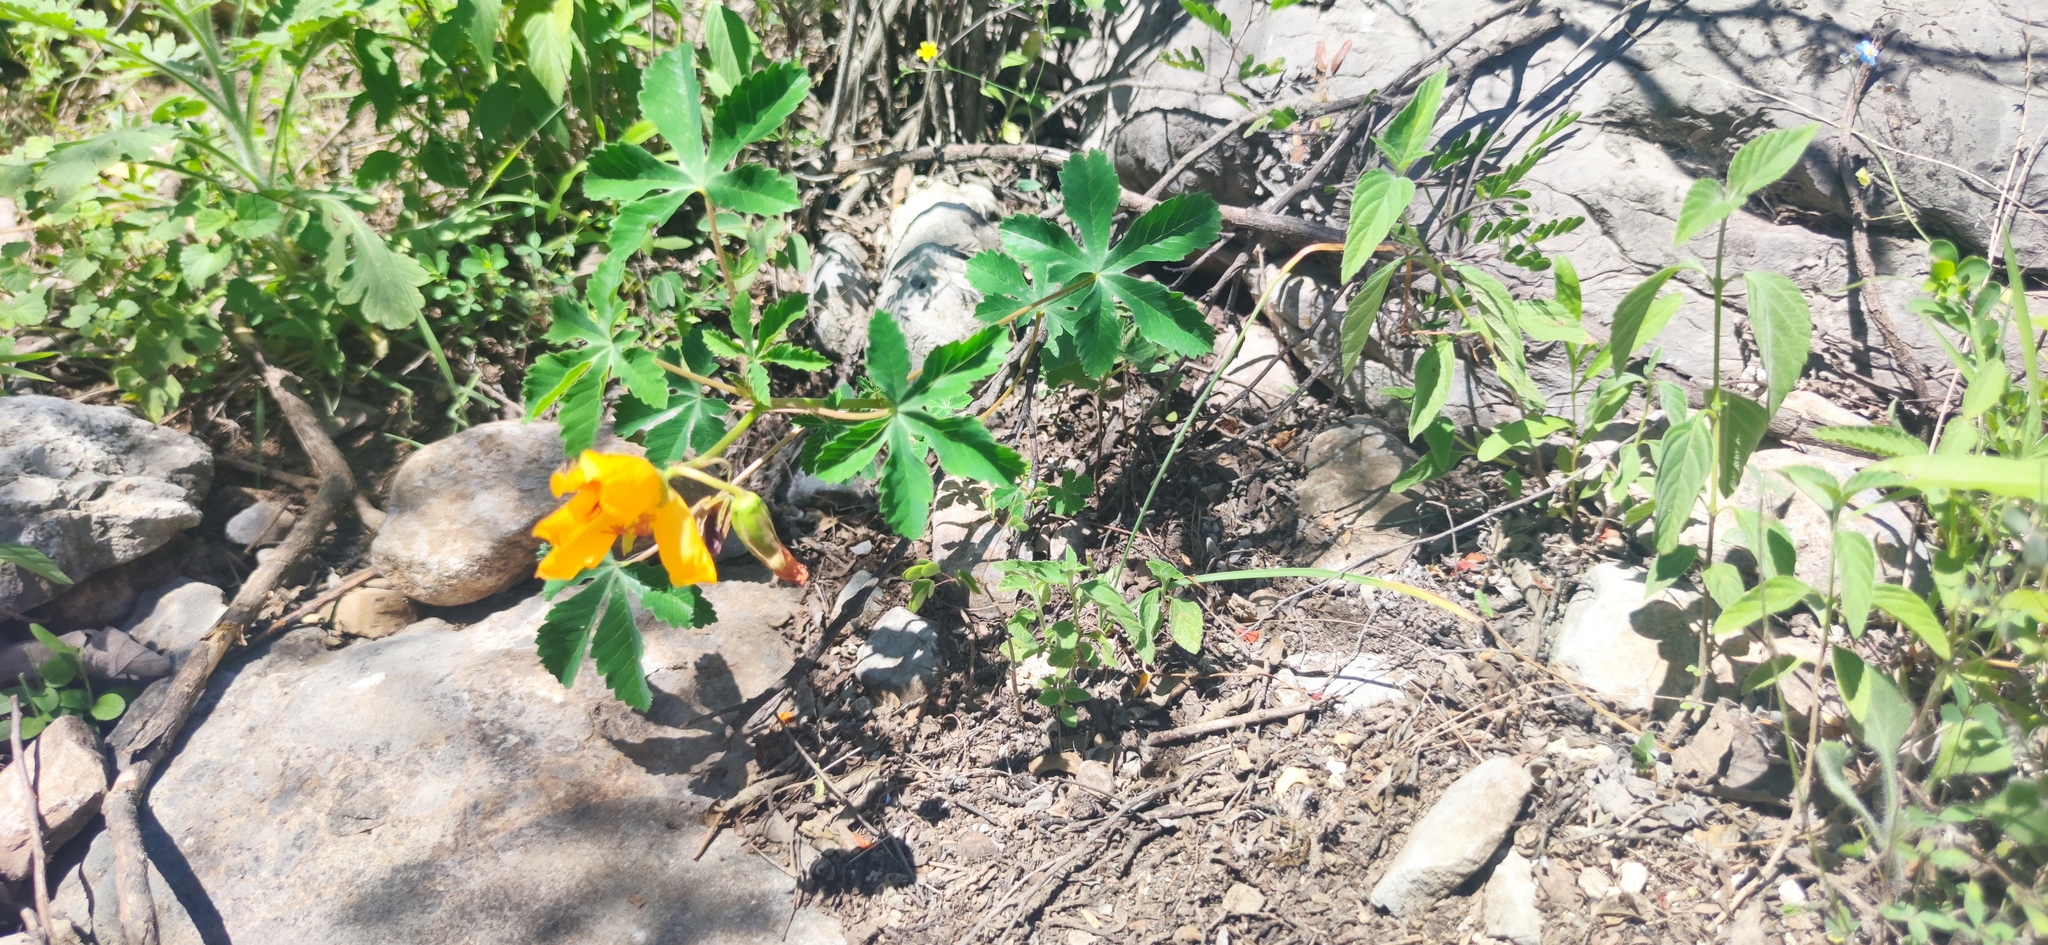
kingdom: Plantae
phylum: Tracheophyta
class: Magnoliopsida
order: Malvales
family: Cochlospermaceae
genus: Cochlospermum
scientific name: Cochlospermum wrightii
